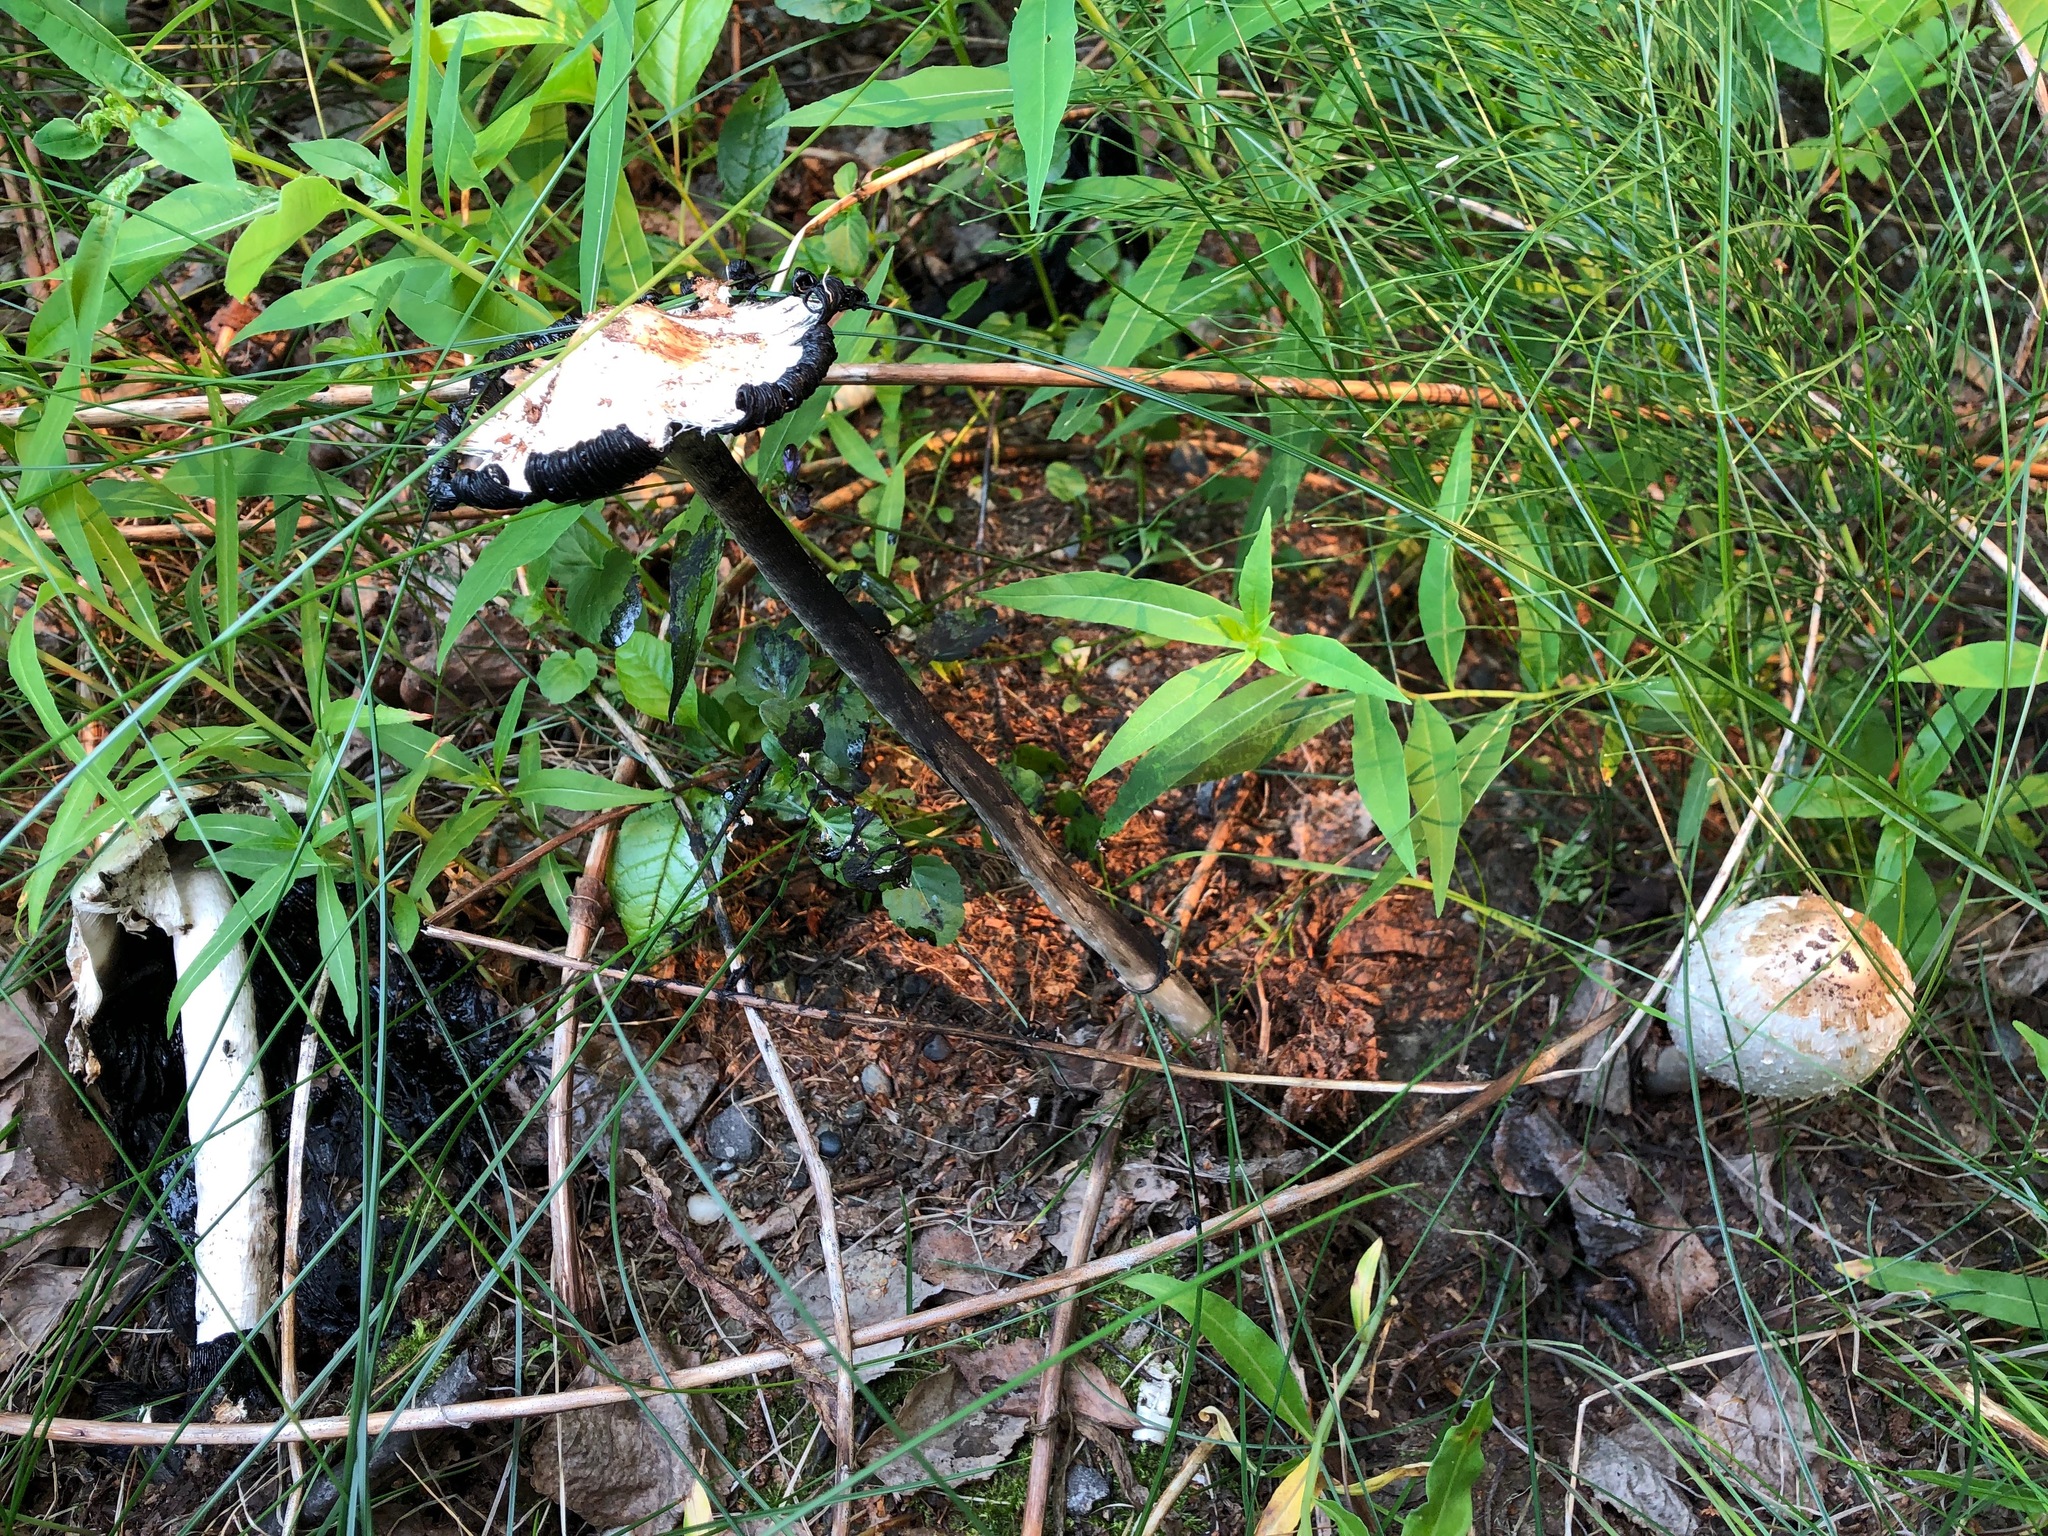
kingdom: Fungi
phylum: Basidiomycota
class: Agaricomycetes
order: Agaricales
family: Agaricaceae
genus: Coprinus
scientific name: Coprinus comatus
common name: Lawyer's wig
